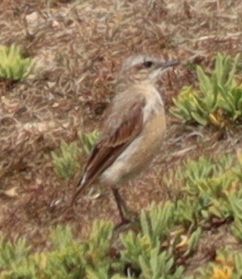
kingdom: Animalia
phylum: Chordata
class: Aves
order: Passeriformes
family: Muscicapidae
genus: Oenanthe
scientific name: Oenanthe oenanthe
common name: Northern wheatear
